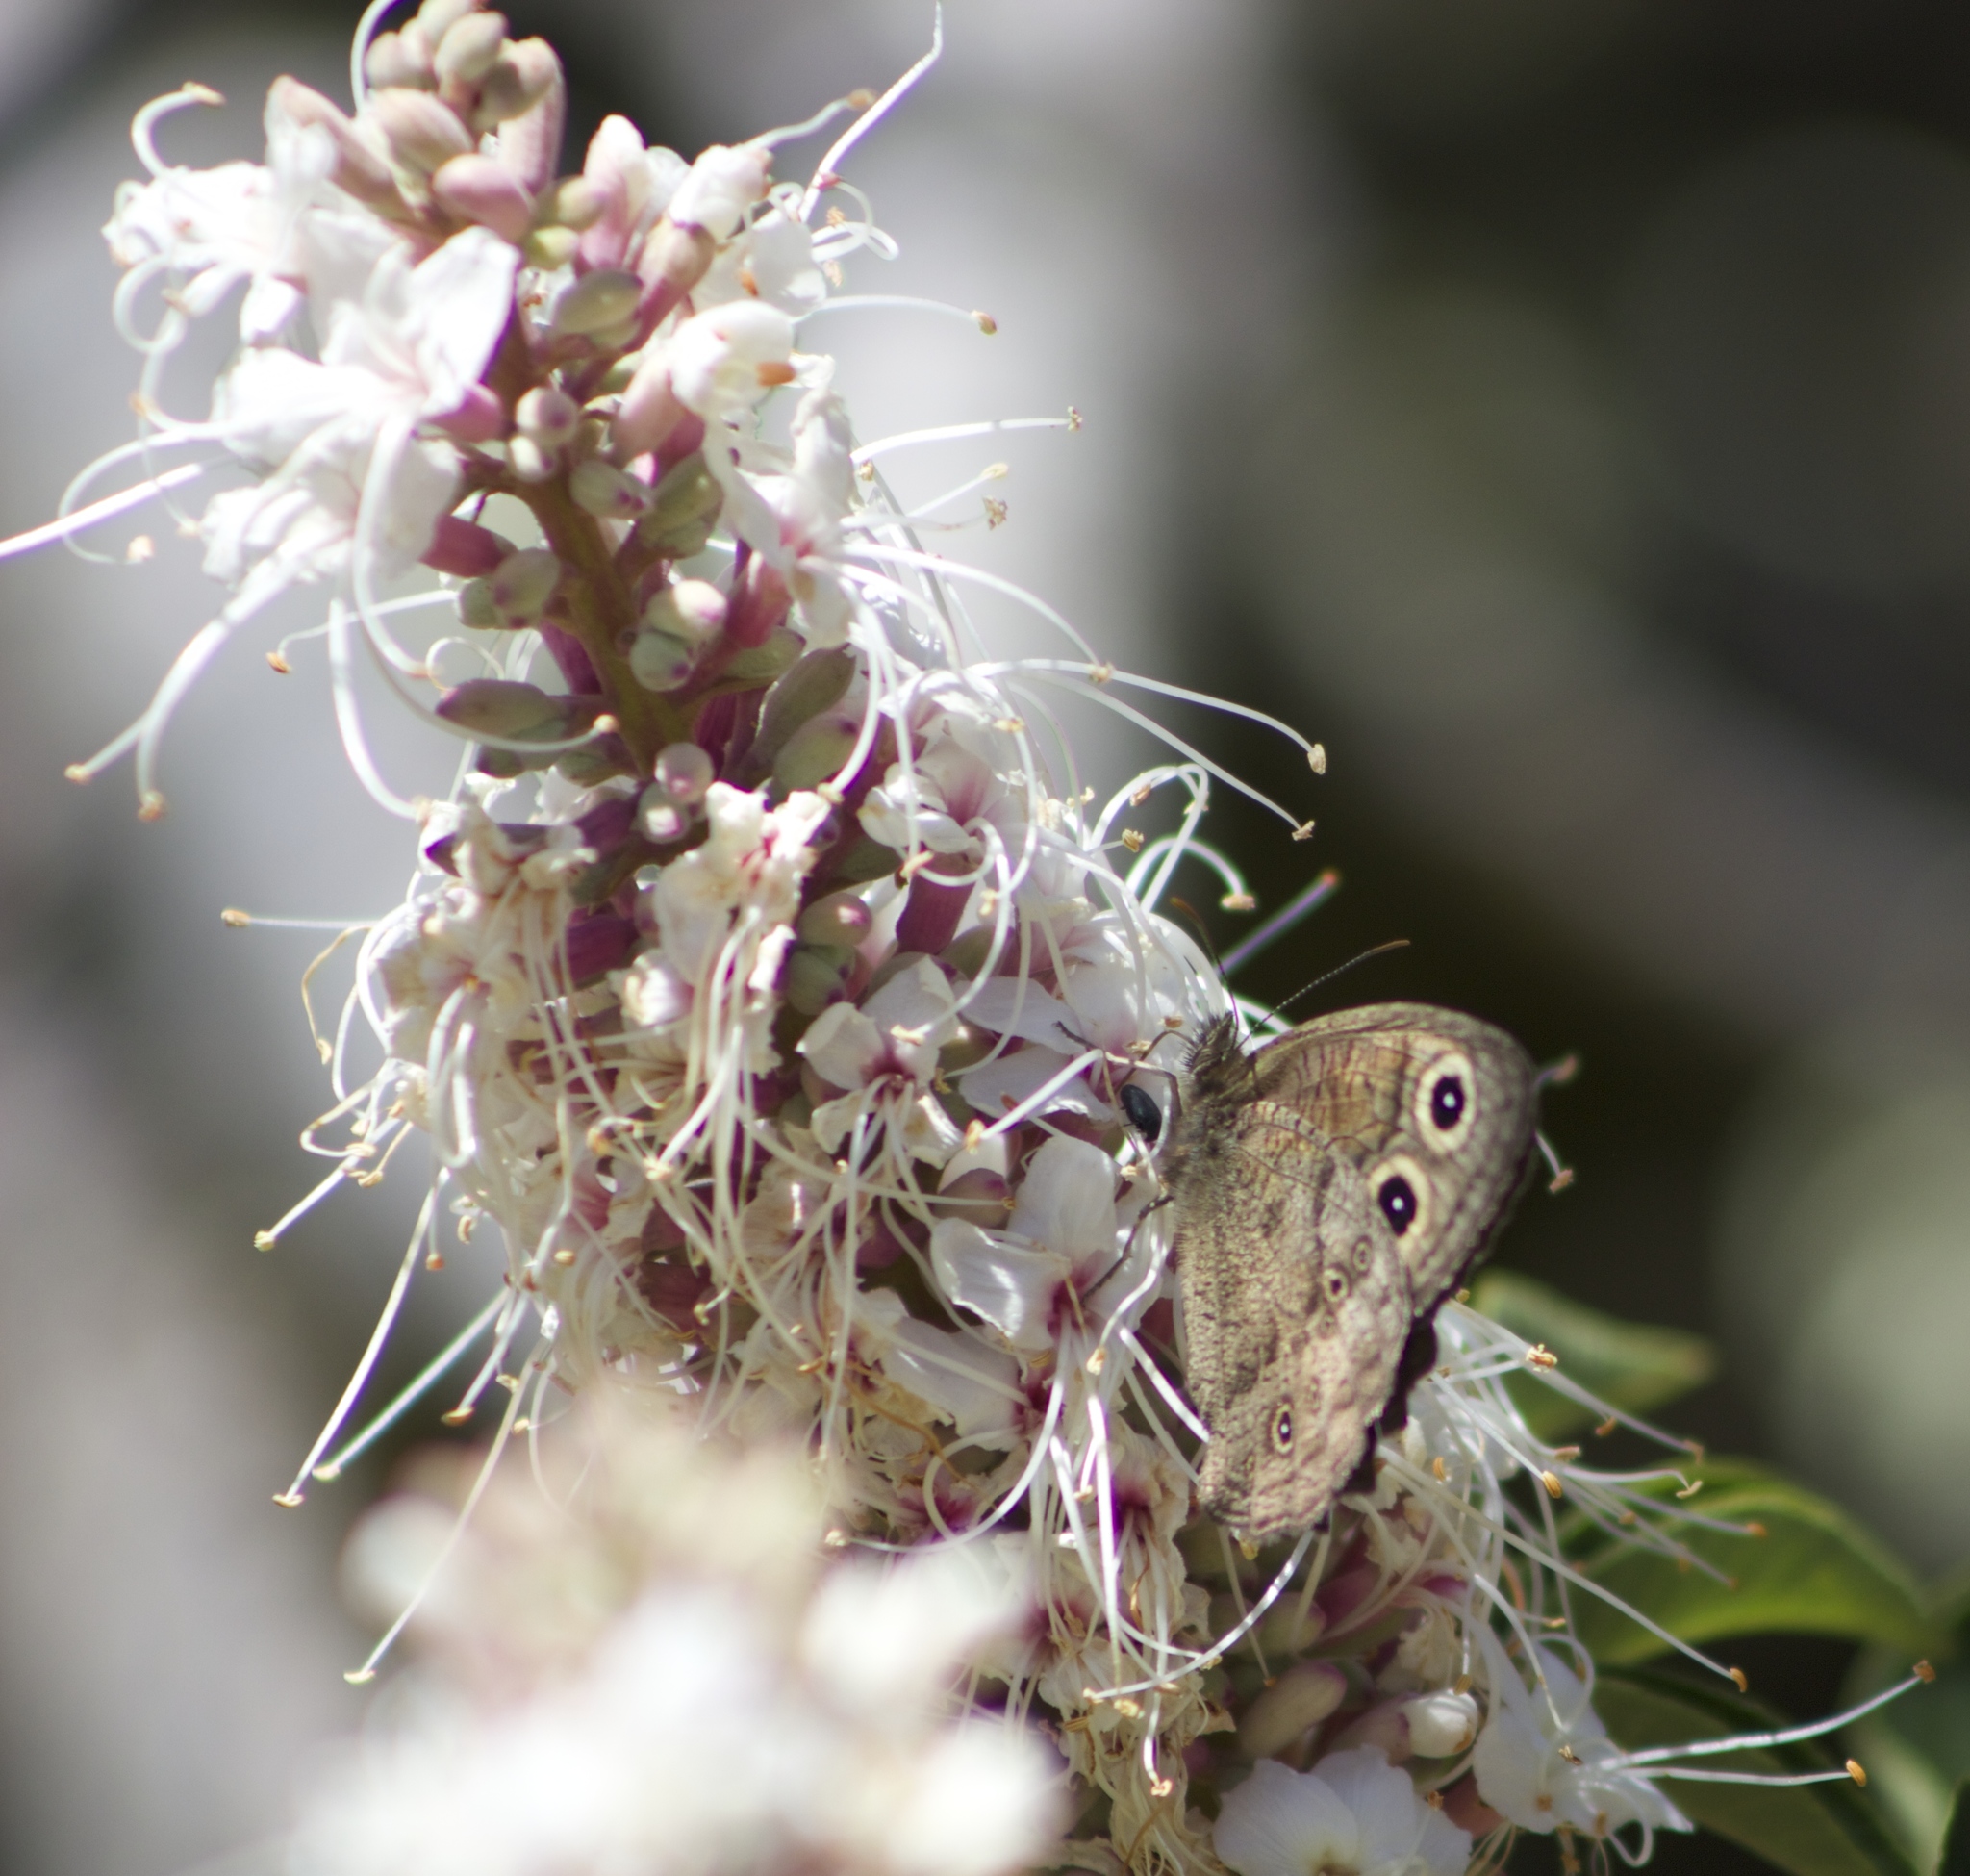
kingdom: Animalia
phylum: Arthropoda
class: Insecta
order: Lepidoptera
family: Nymphalidae
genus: Cercyonis
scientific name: Cercyonis pegala
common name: Common wood-nymph
